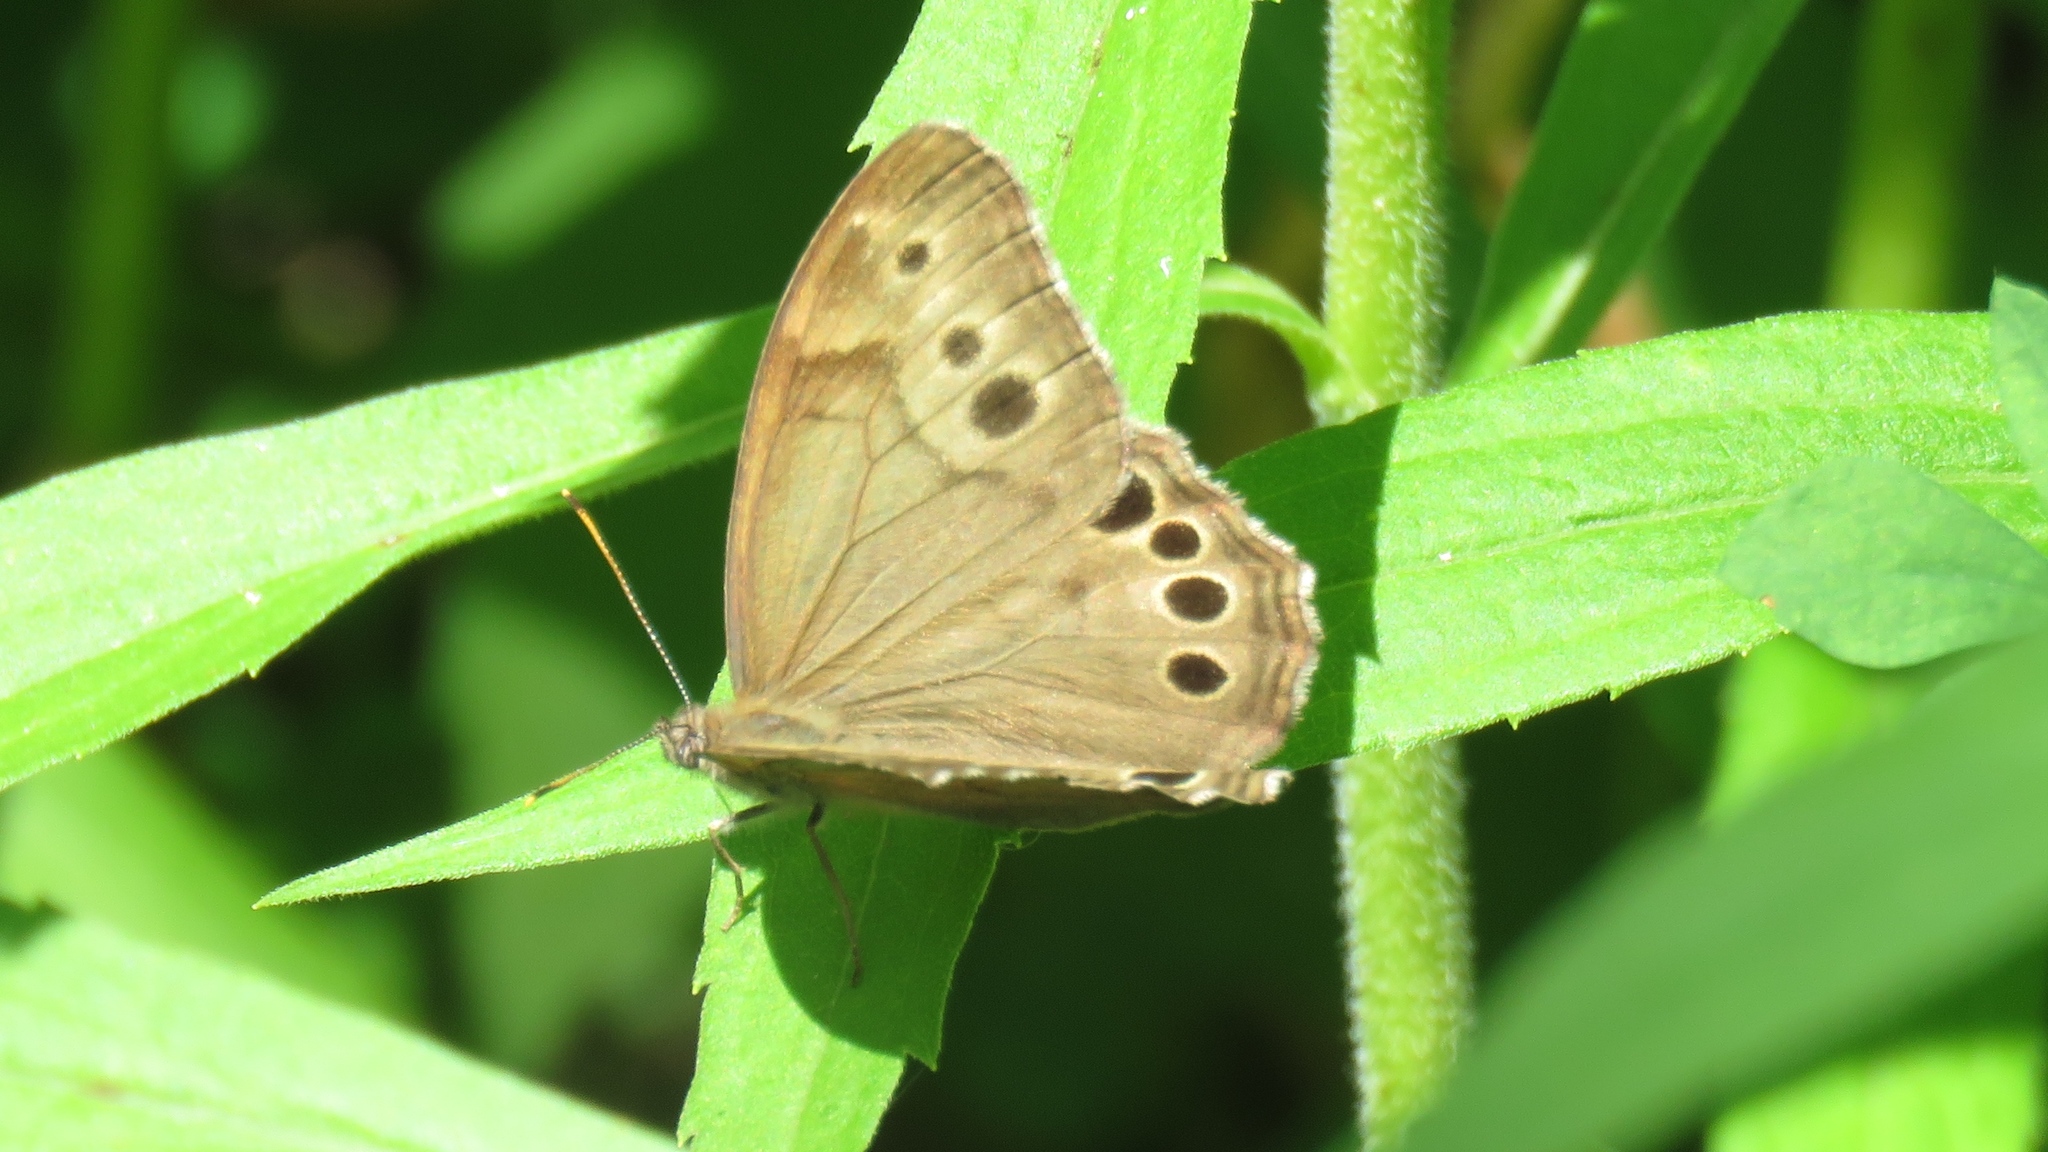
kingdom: Animalia
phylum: Arthropoda
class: Insecta
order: Lepidoptera
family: Nymphalidae
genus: Lethe
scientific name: Lethe anthedon
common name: Northern pearly-eye
